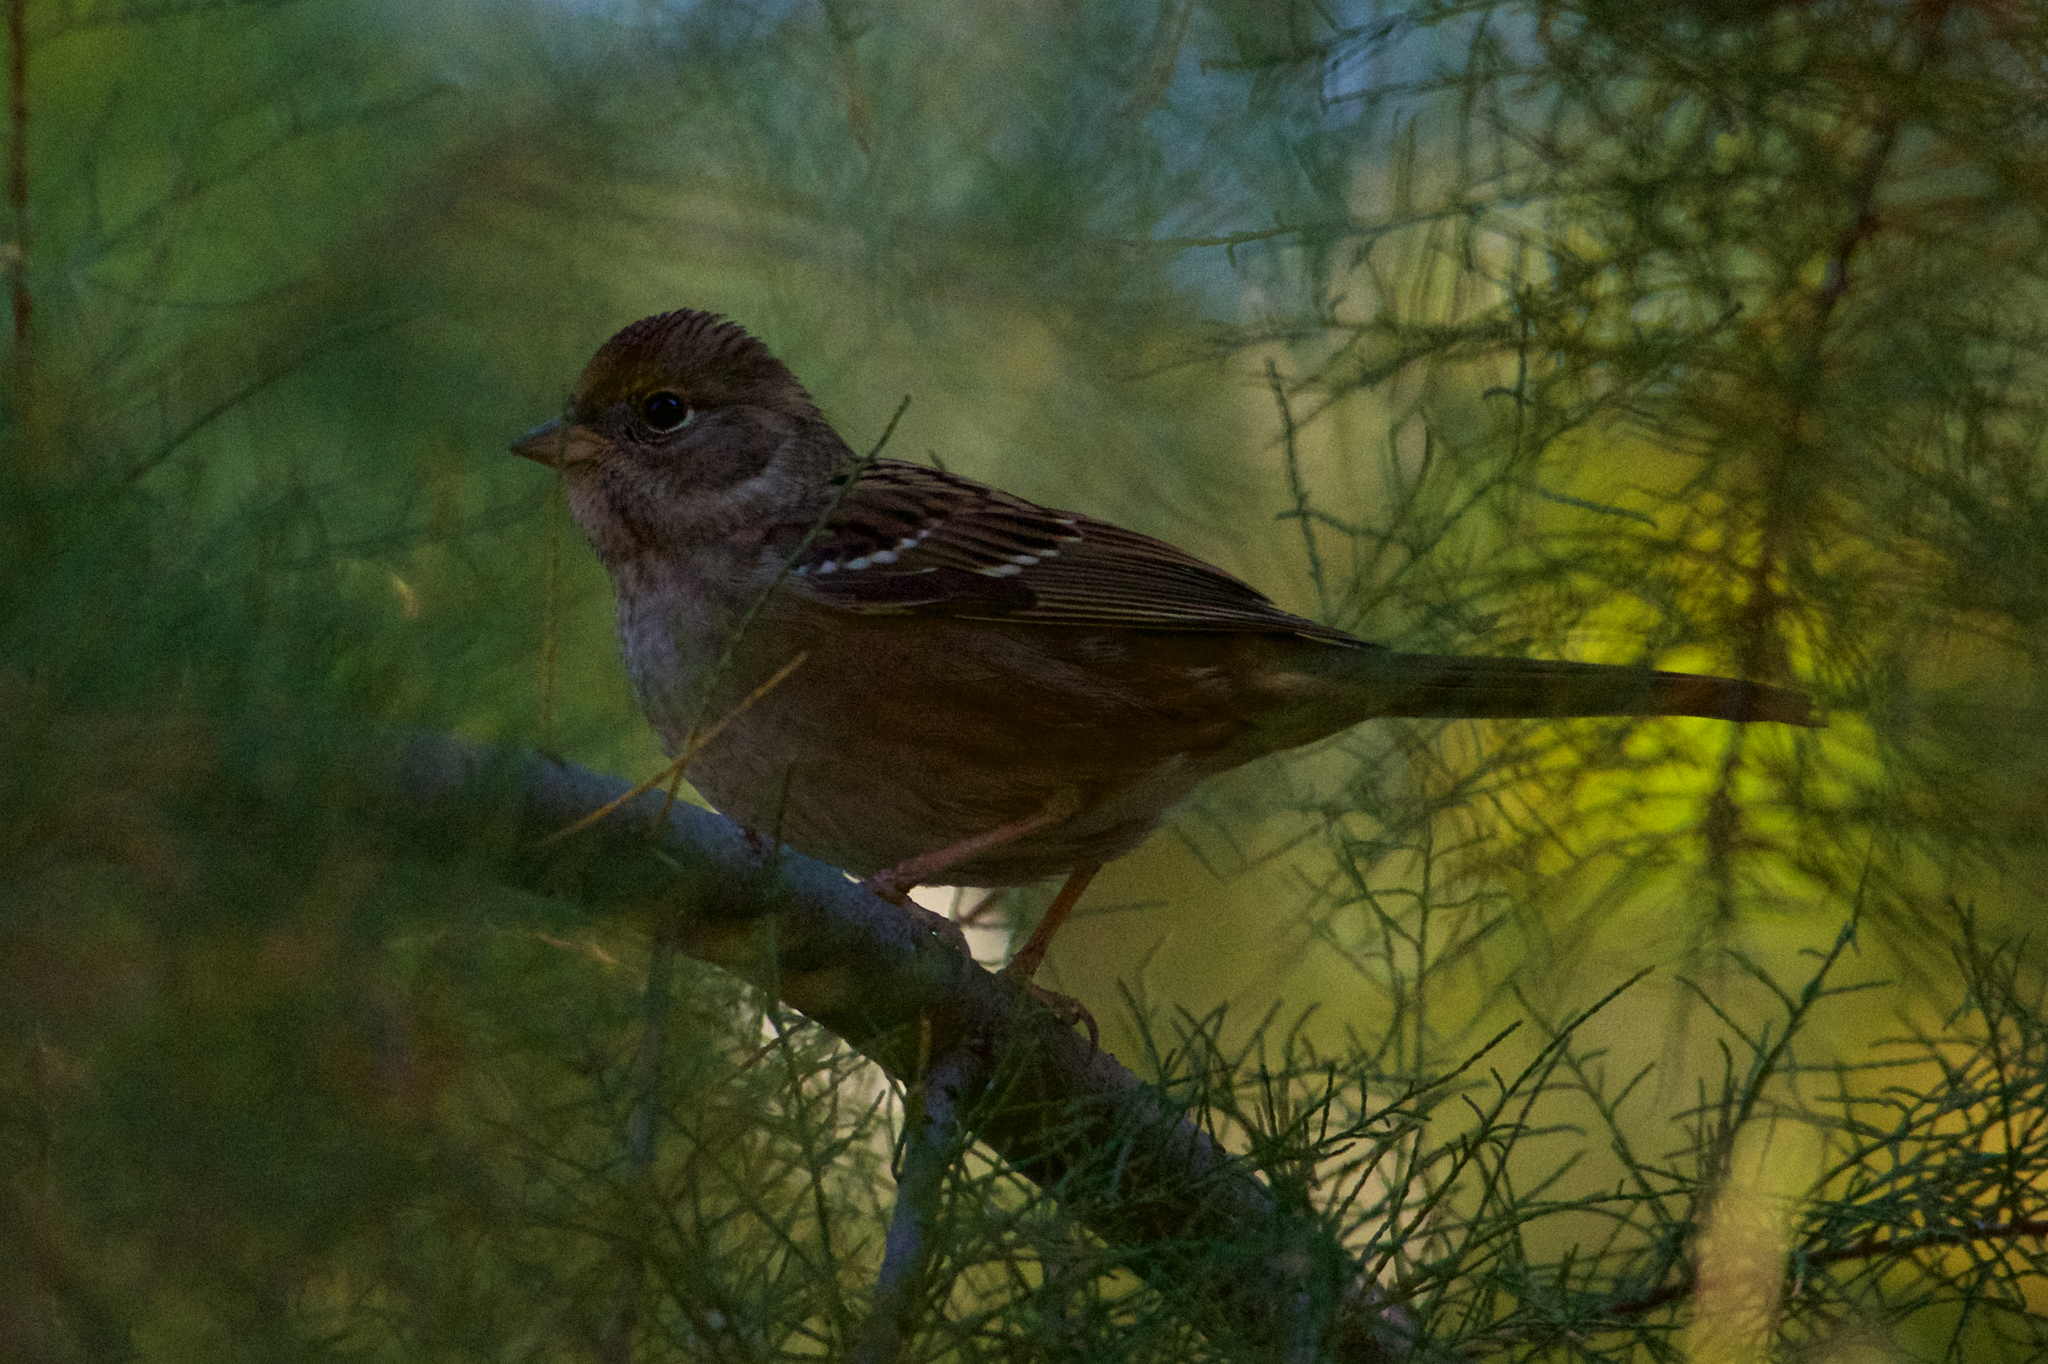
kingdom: Animalia
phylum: Chordata
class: Aves
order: Passeriformes
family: Passerellidae
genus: Zonotrichia
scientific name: Zonotrichia atricapilla
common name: Golden-crowned sparrow
